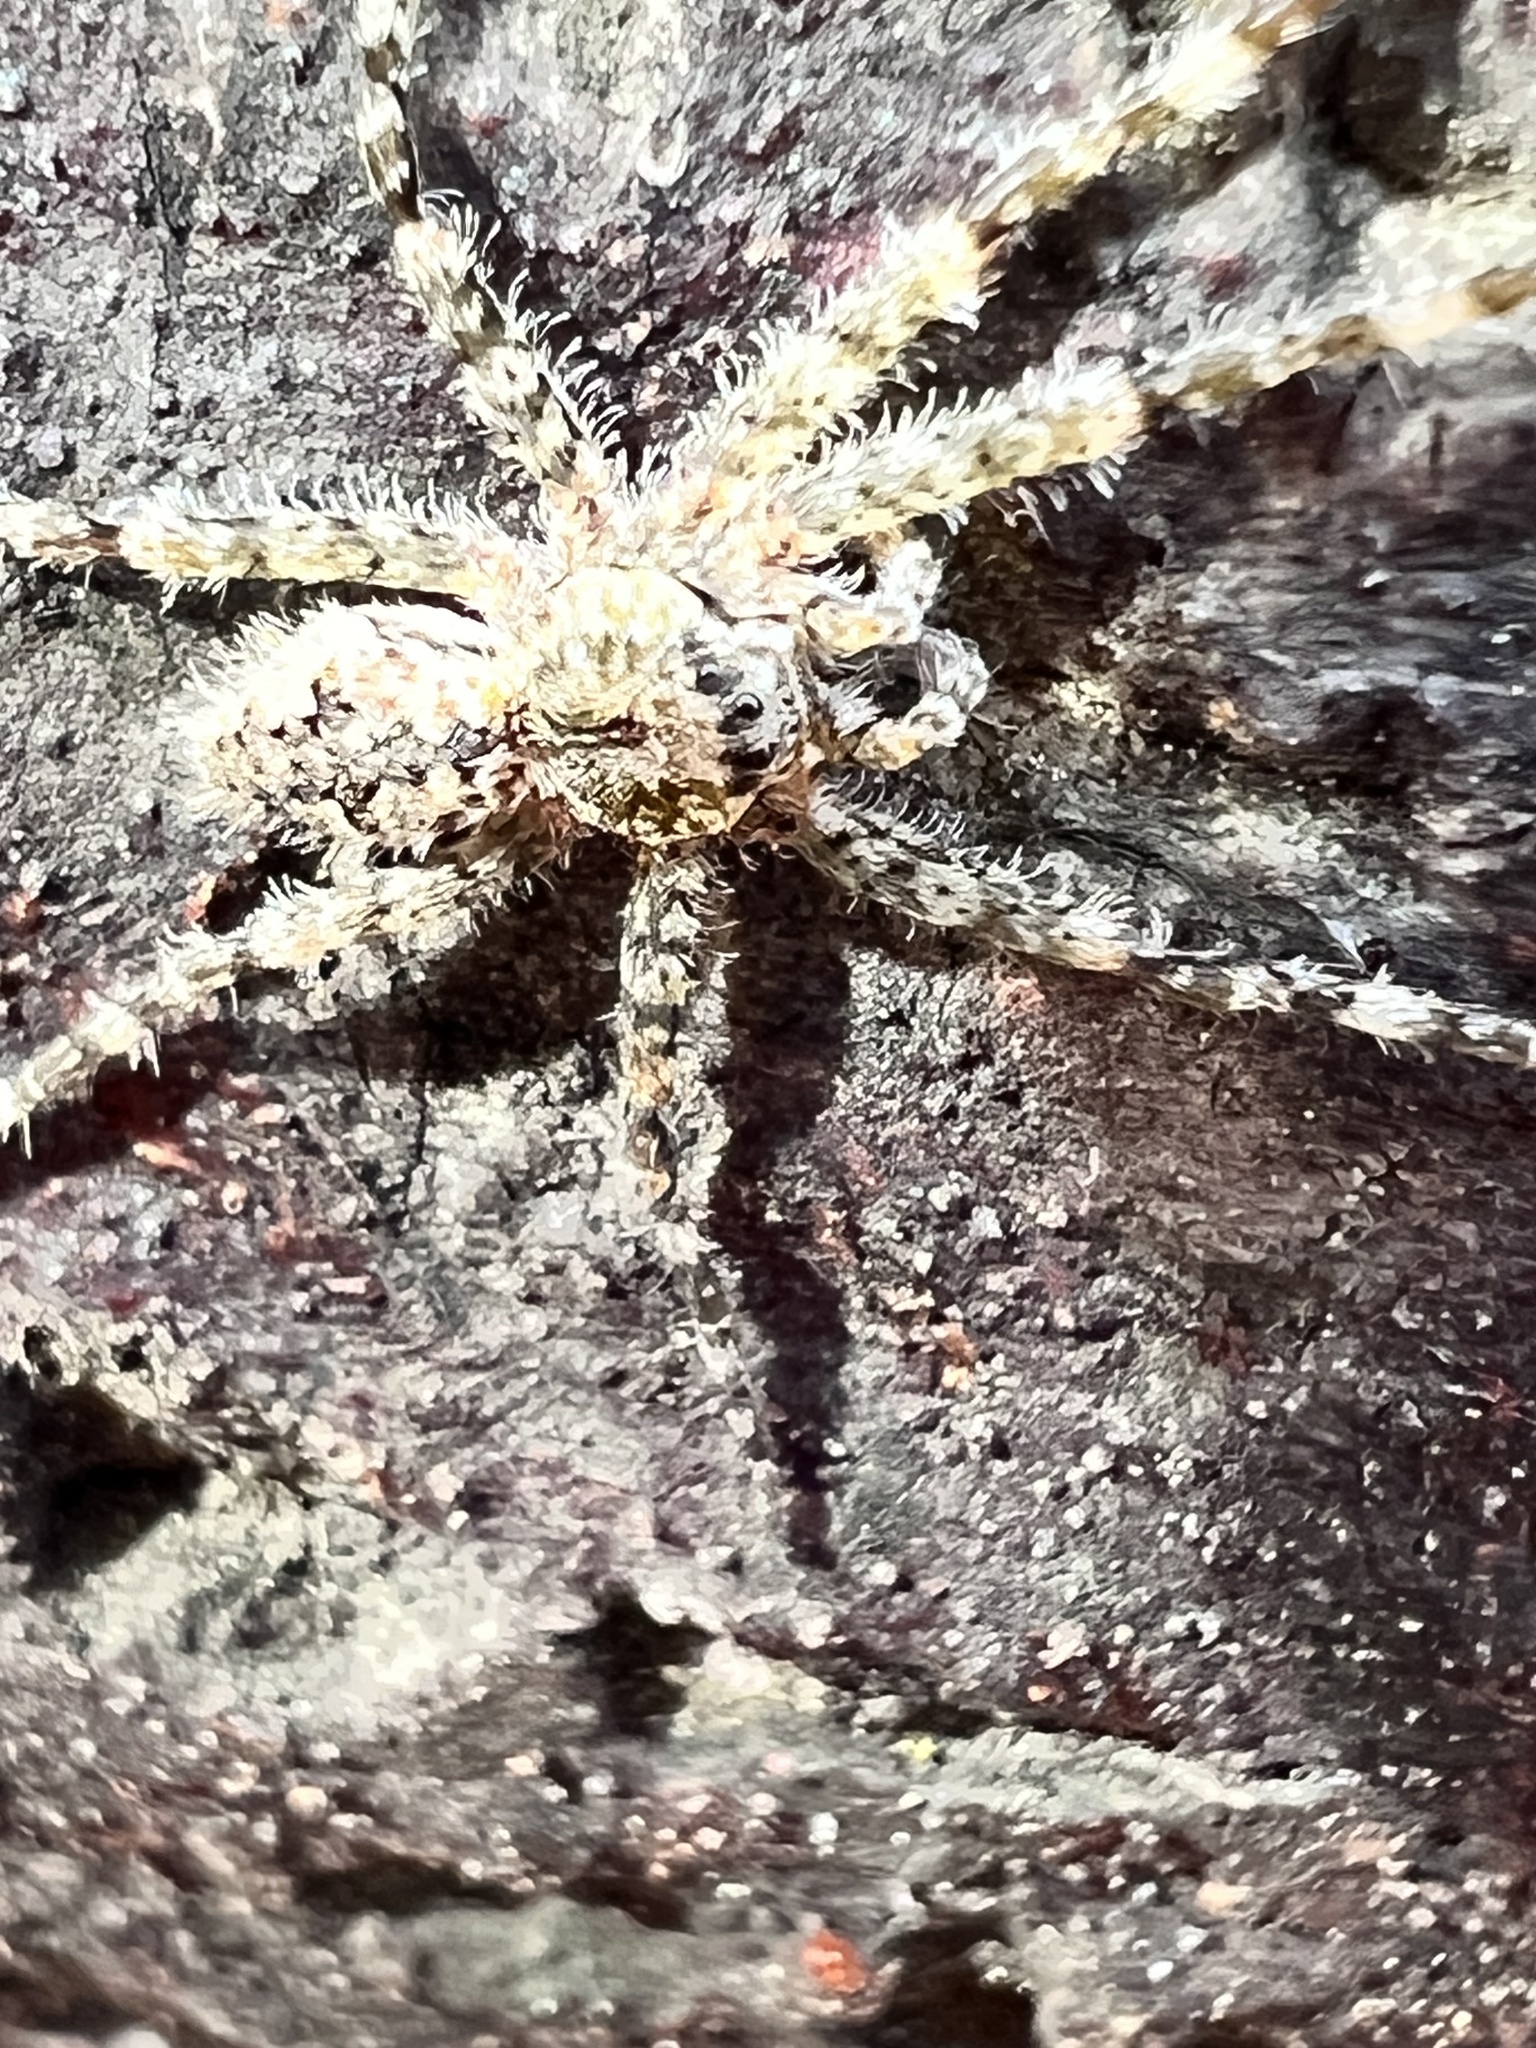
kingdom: Animalia
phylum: Arthropoda
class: Arachnida
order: Araneae
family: Pisauridae
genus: Dolomedes
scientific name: Dolomedes albineus
